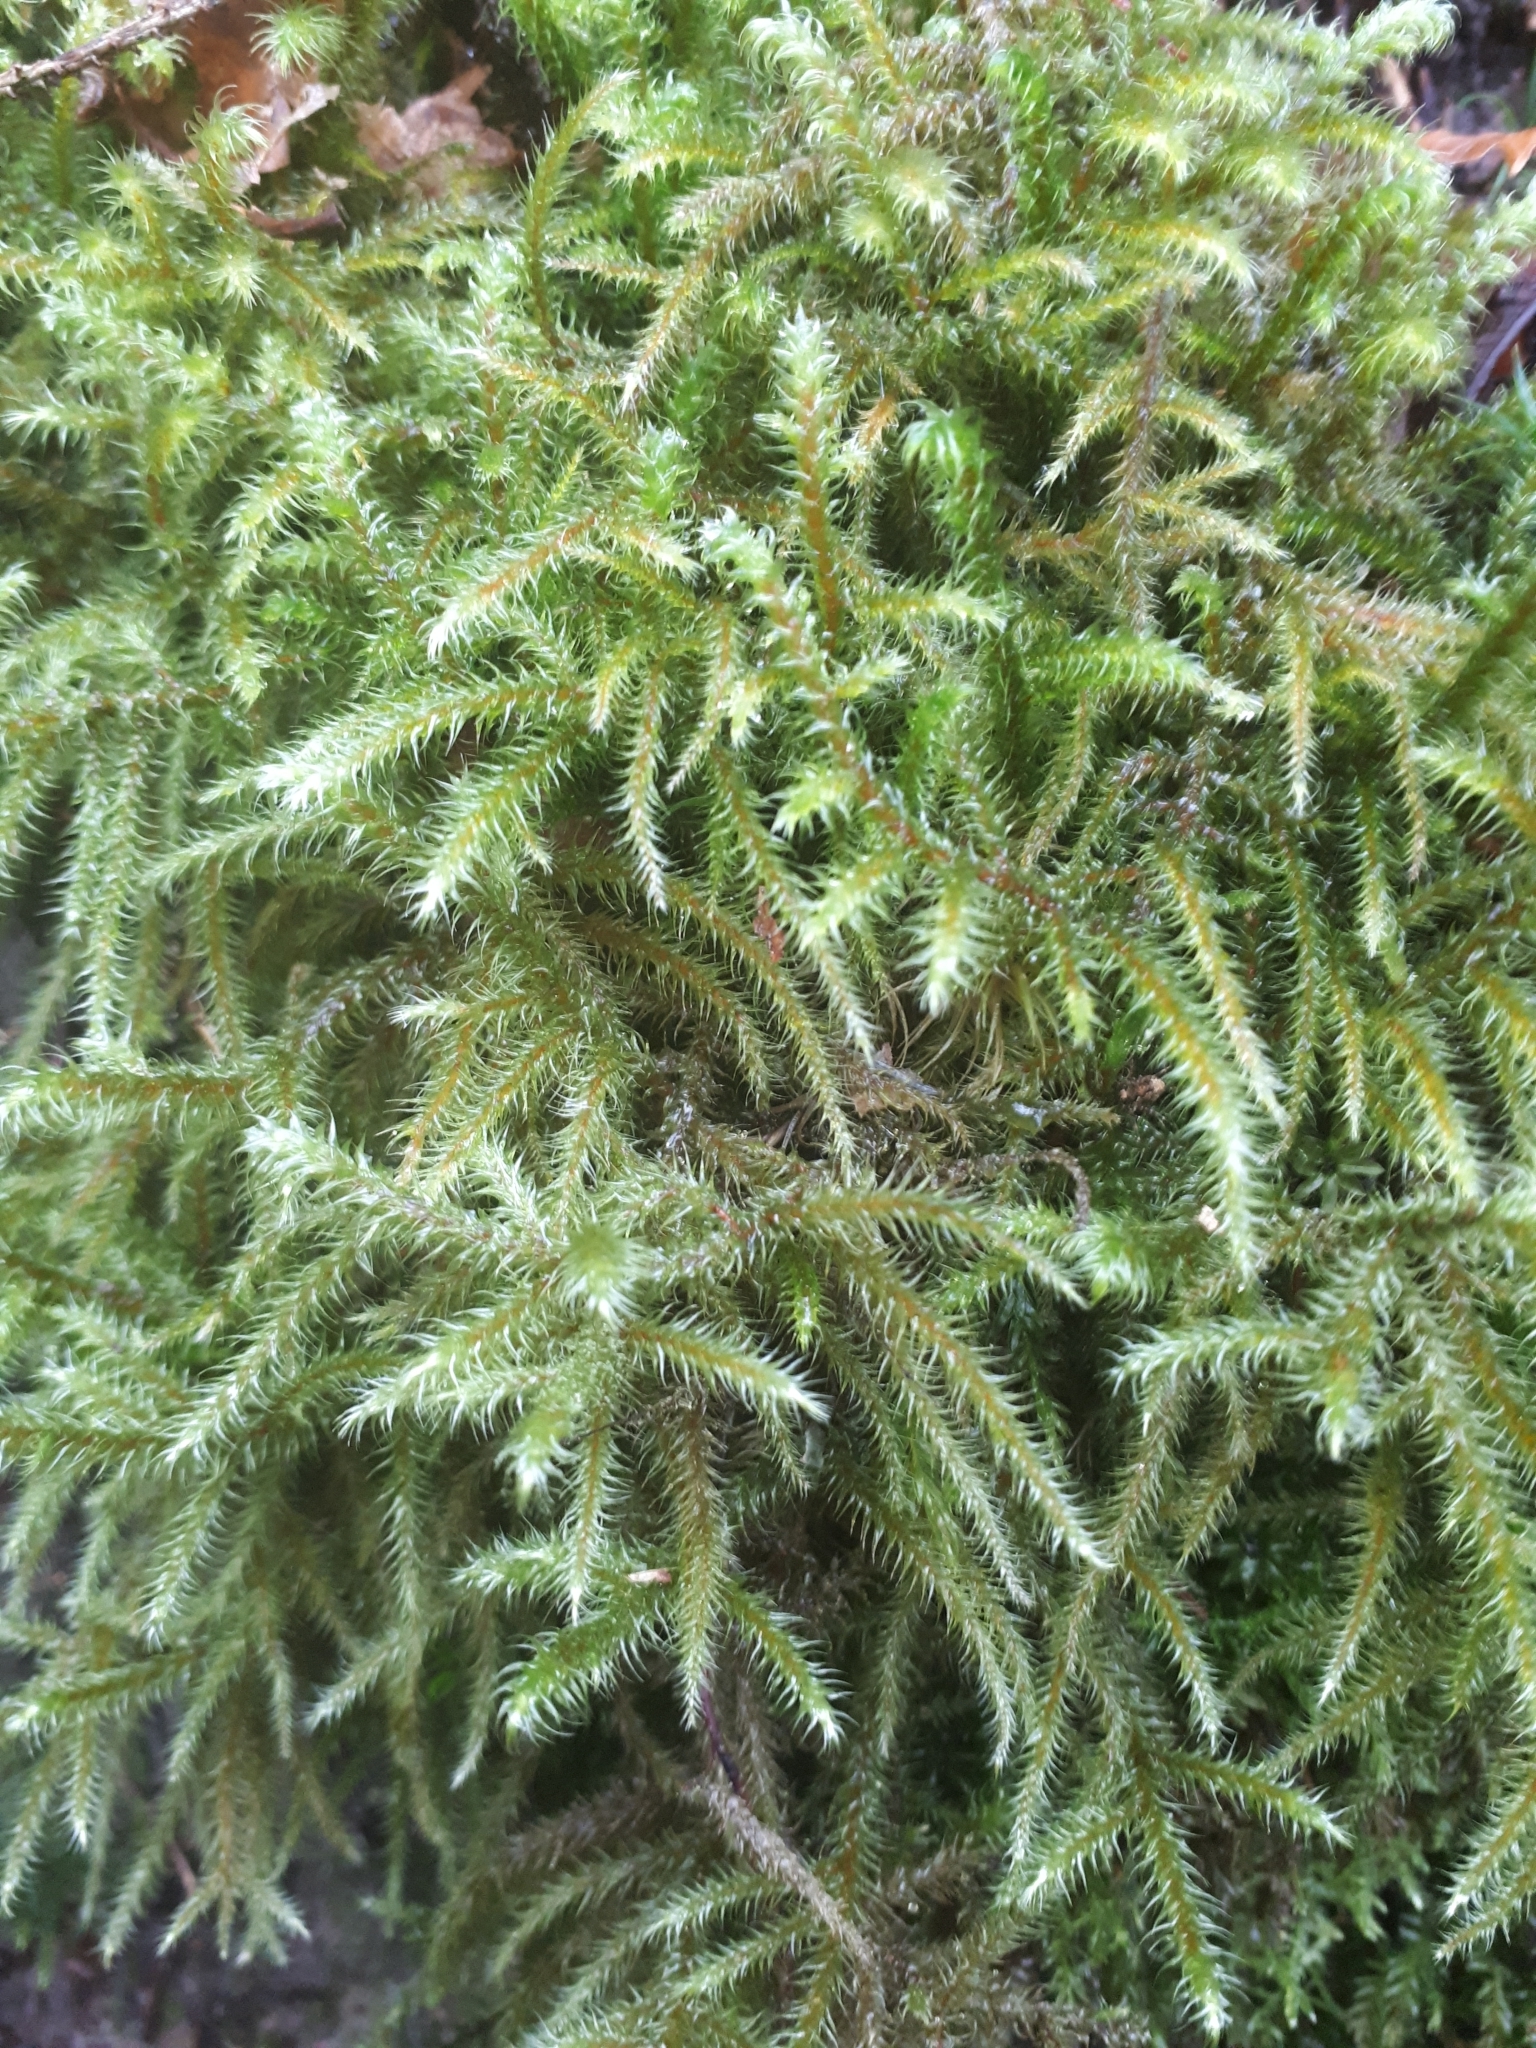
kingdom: Plantae
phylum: Bryophyta
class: Bryopsida
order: Hypnales
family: Hylocomiaceae
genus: Rhytidiadelphus
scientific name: Rhytidiadelphus loreus
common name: Lanky moss
